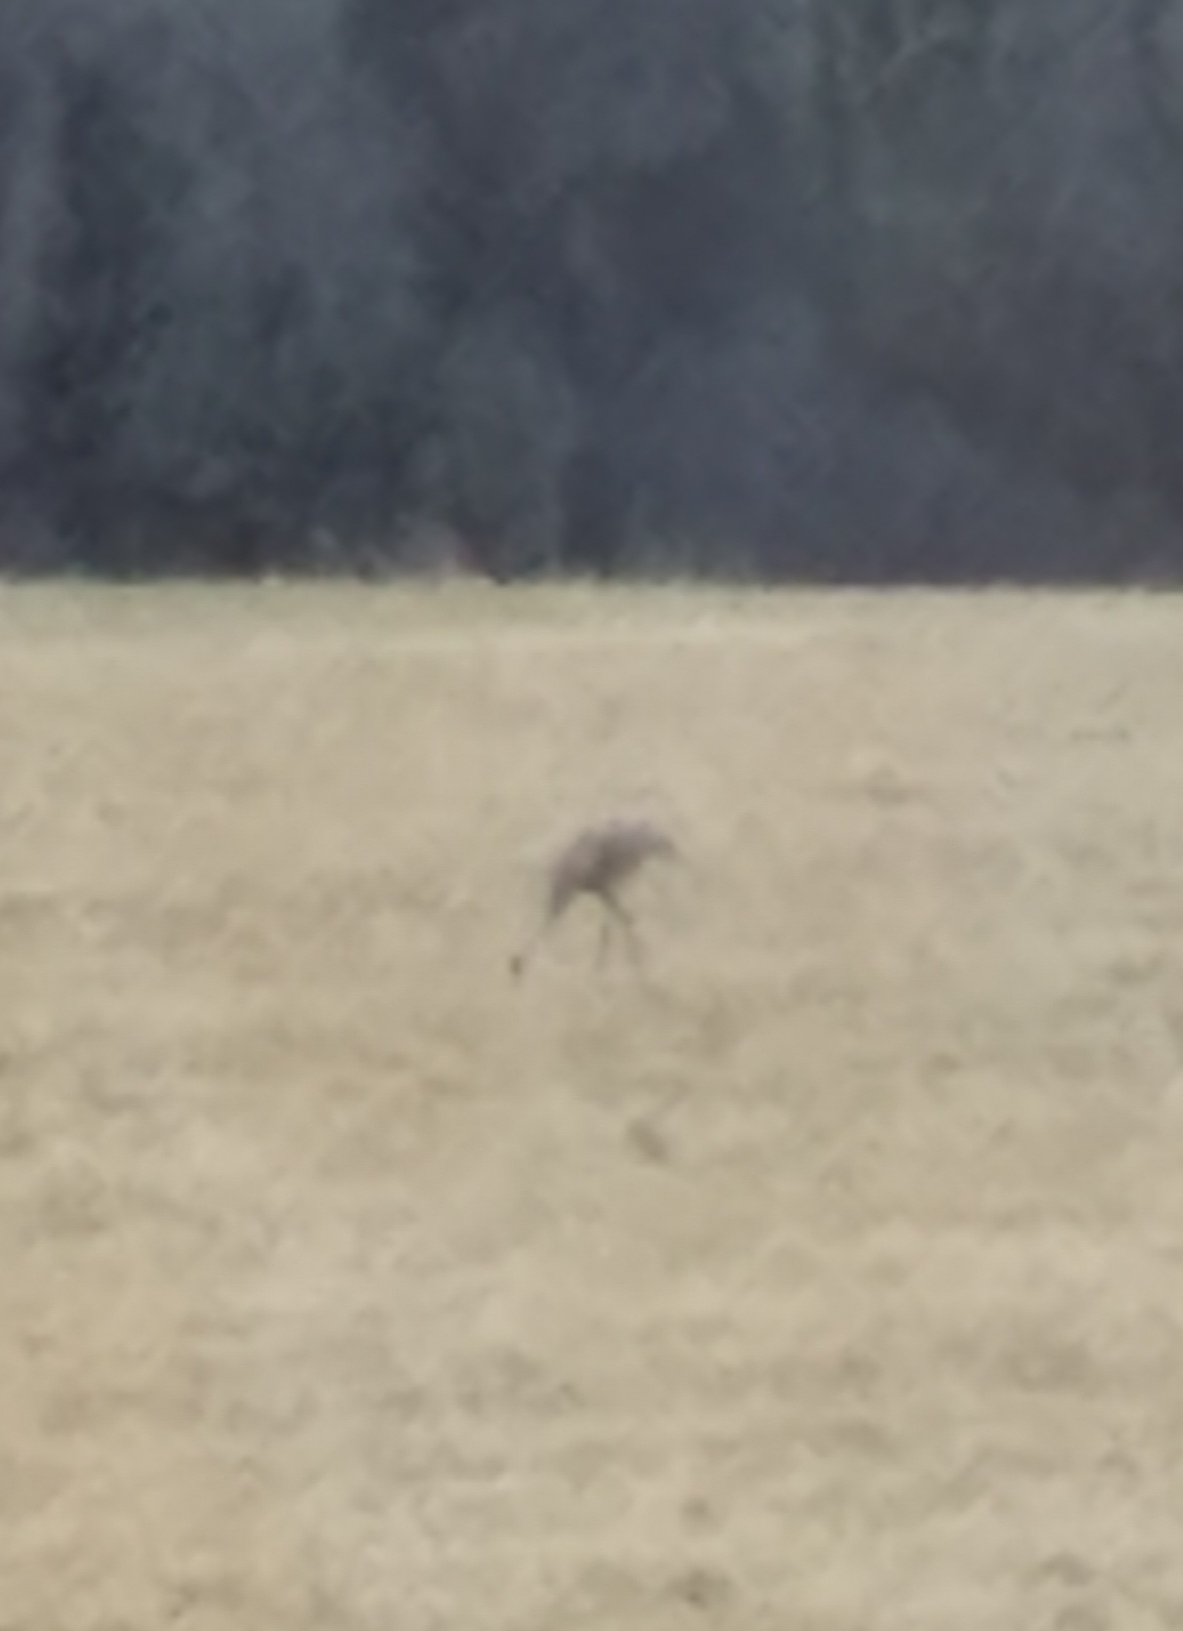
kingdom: Animalia
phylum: Chordata
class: Aves
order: Gruiformes
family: Gruidae
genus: Grus
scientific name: Grus canadensis
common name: Sandhill crane
